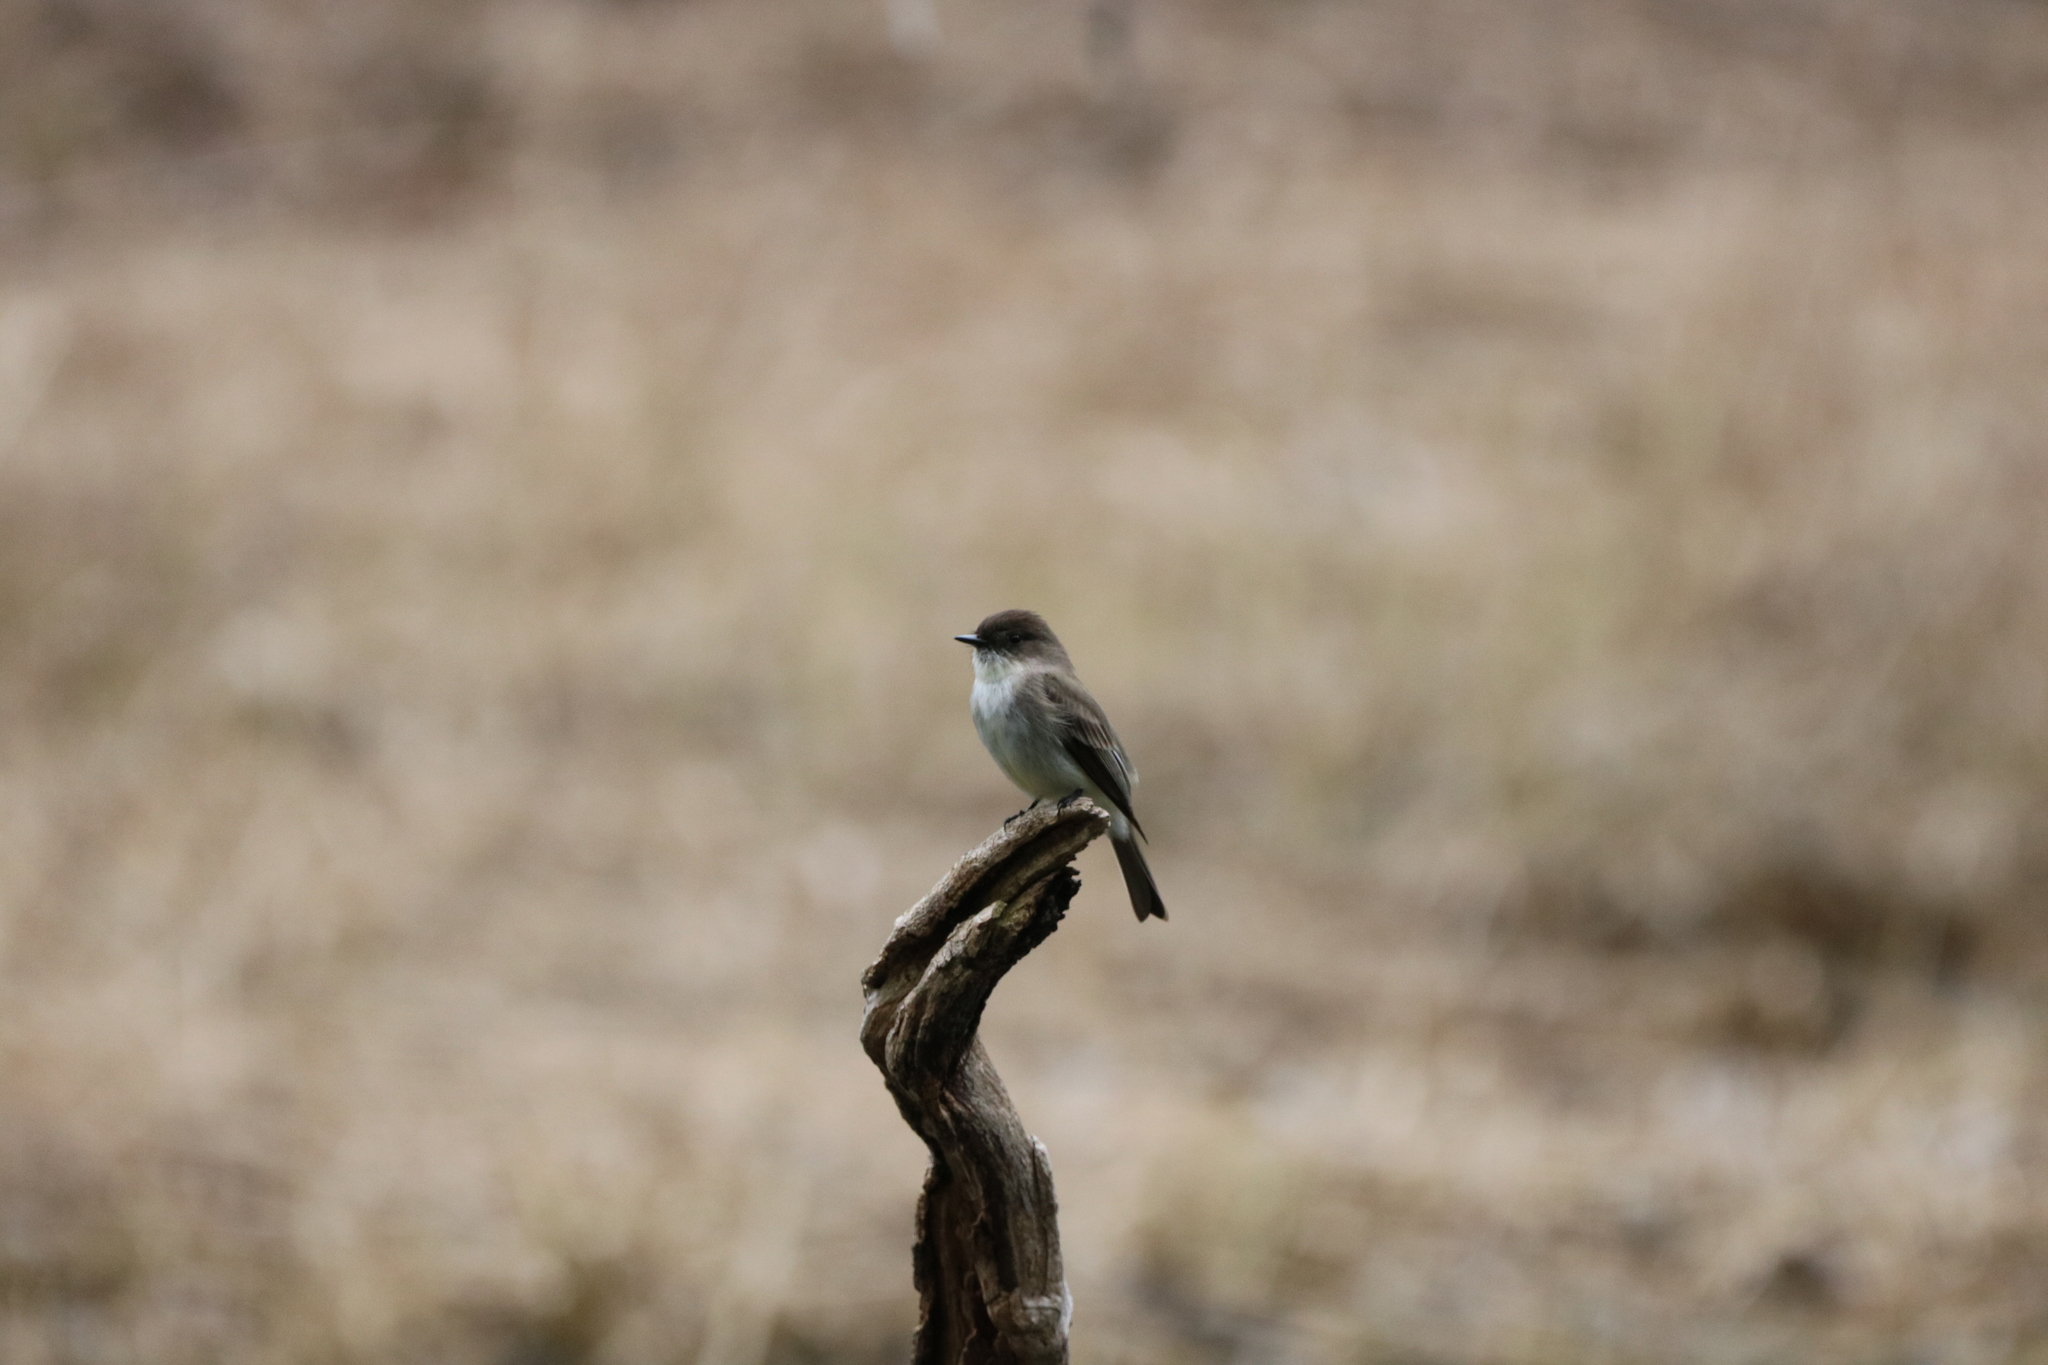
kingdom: Animalia
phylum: Chordata
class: Aves
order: Passeriformes
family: Tyrannidae
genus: Sayornis
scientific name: Sayornis phoebe
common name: Eastern phoebe
